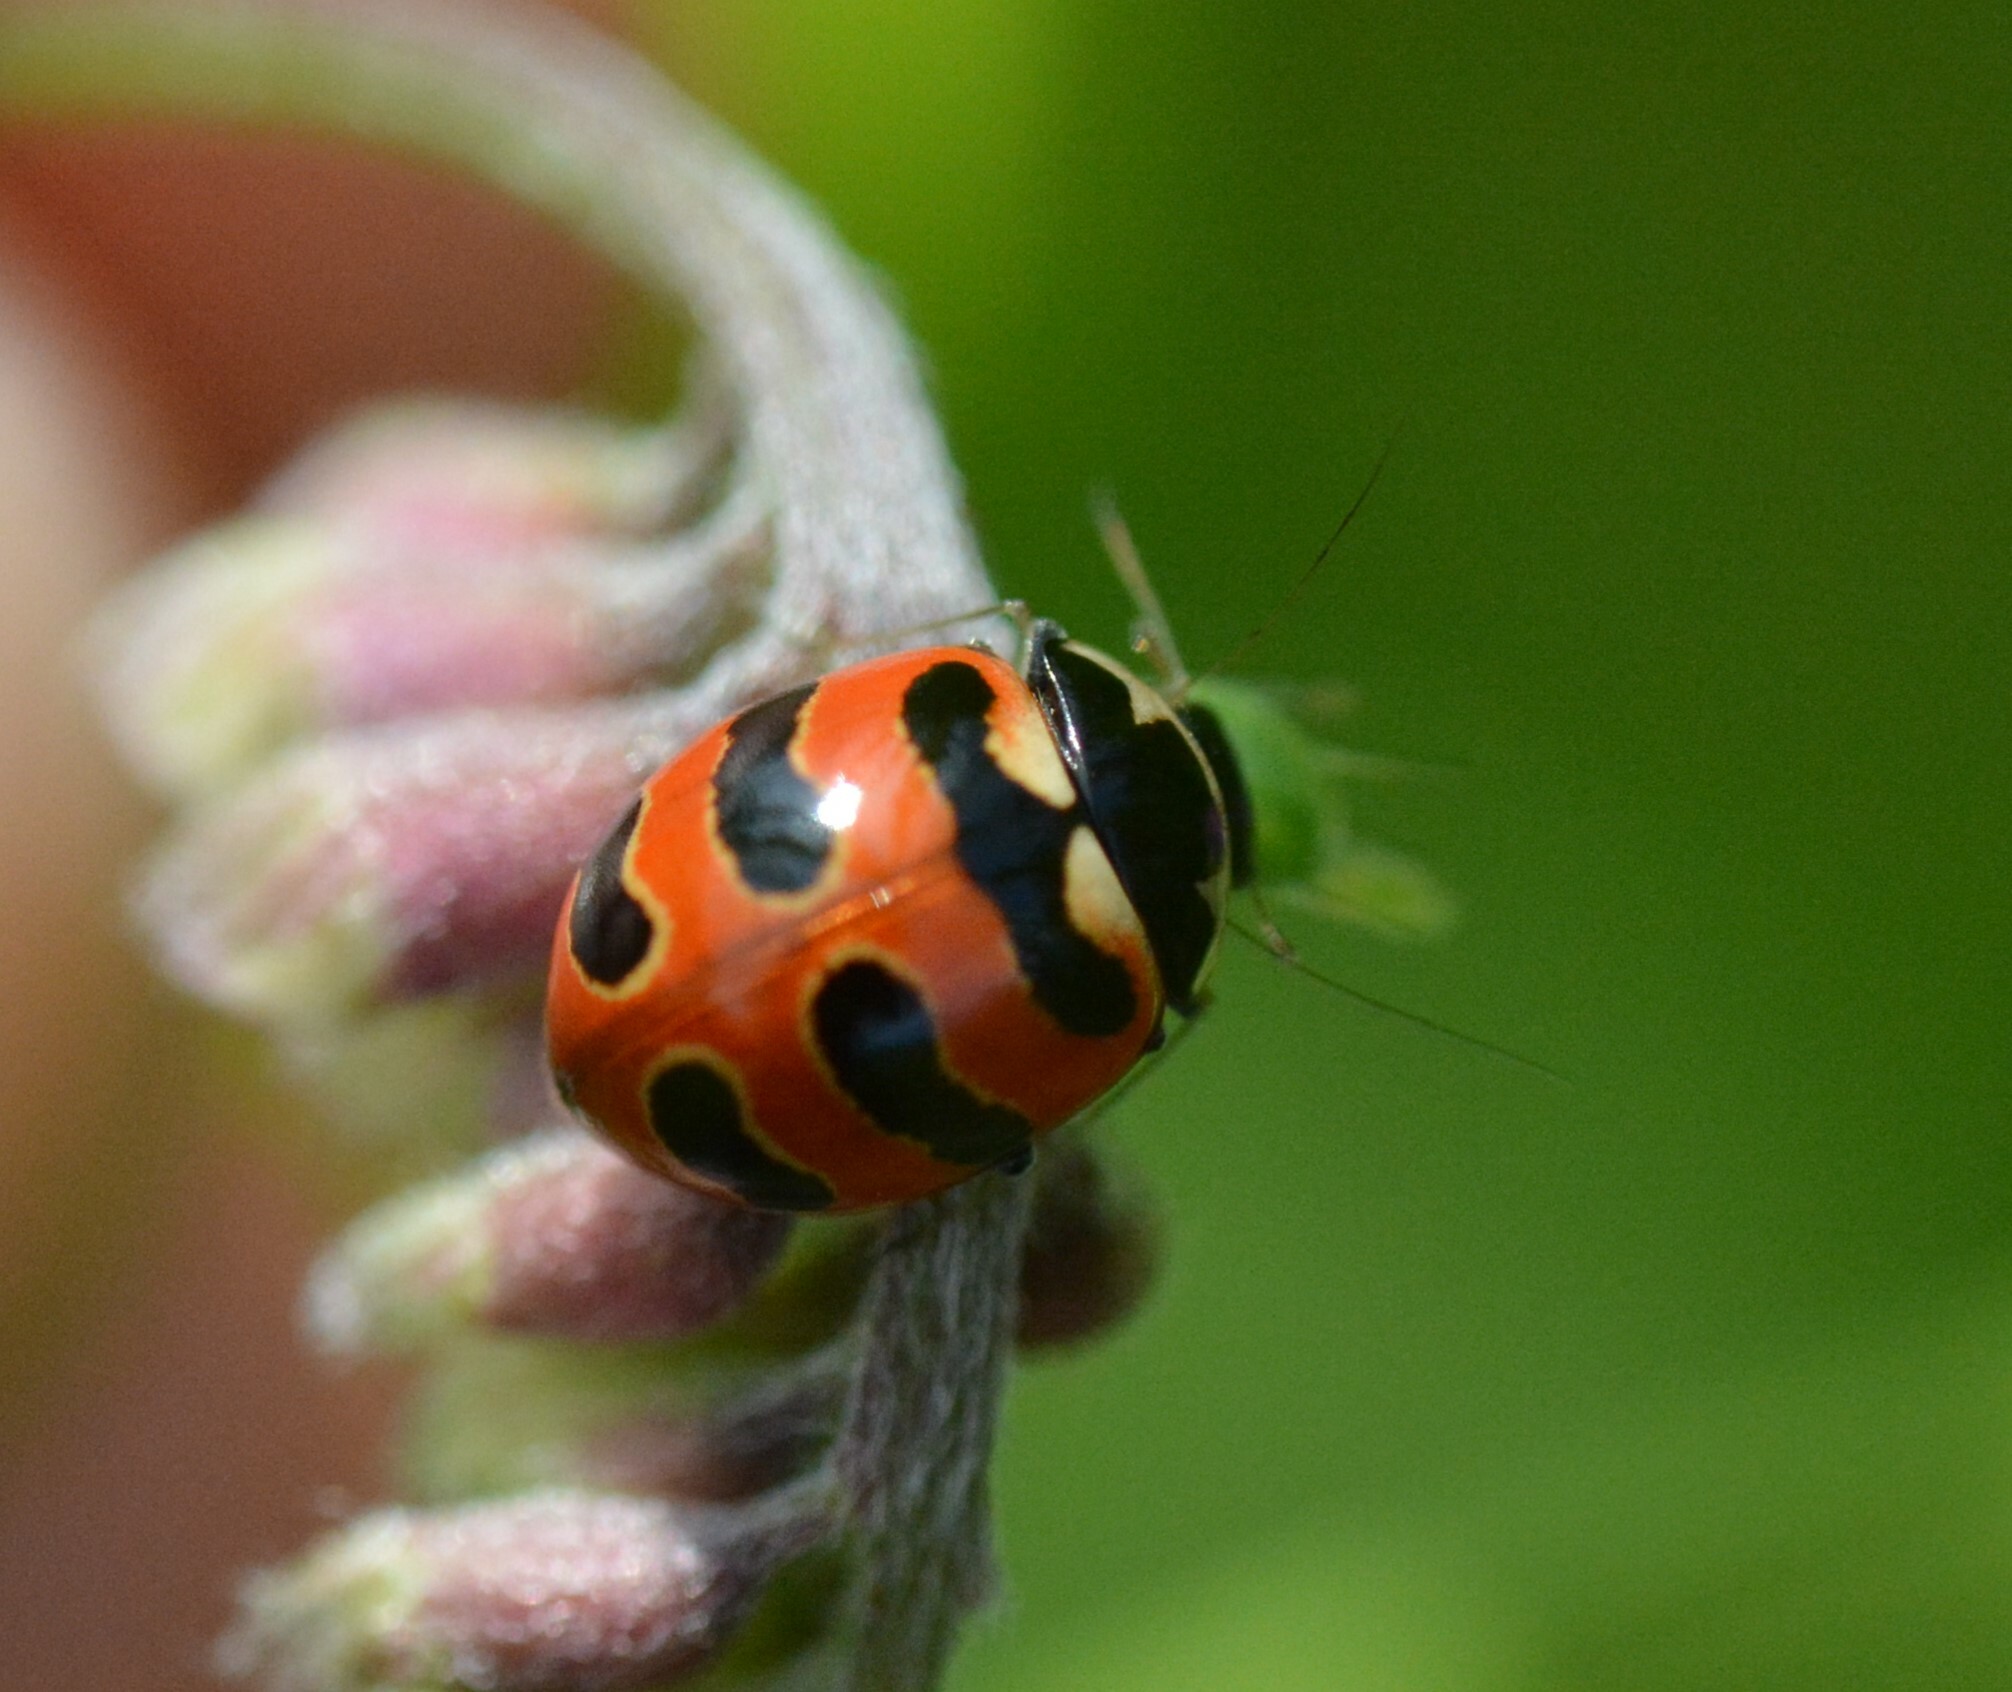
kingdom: Animalia
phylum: Arthropoda
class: Insecta
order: Coleoptera
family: Coccinellidae
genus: Coccinella
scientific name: Coccinella trifasciata
